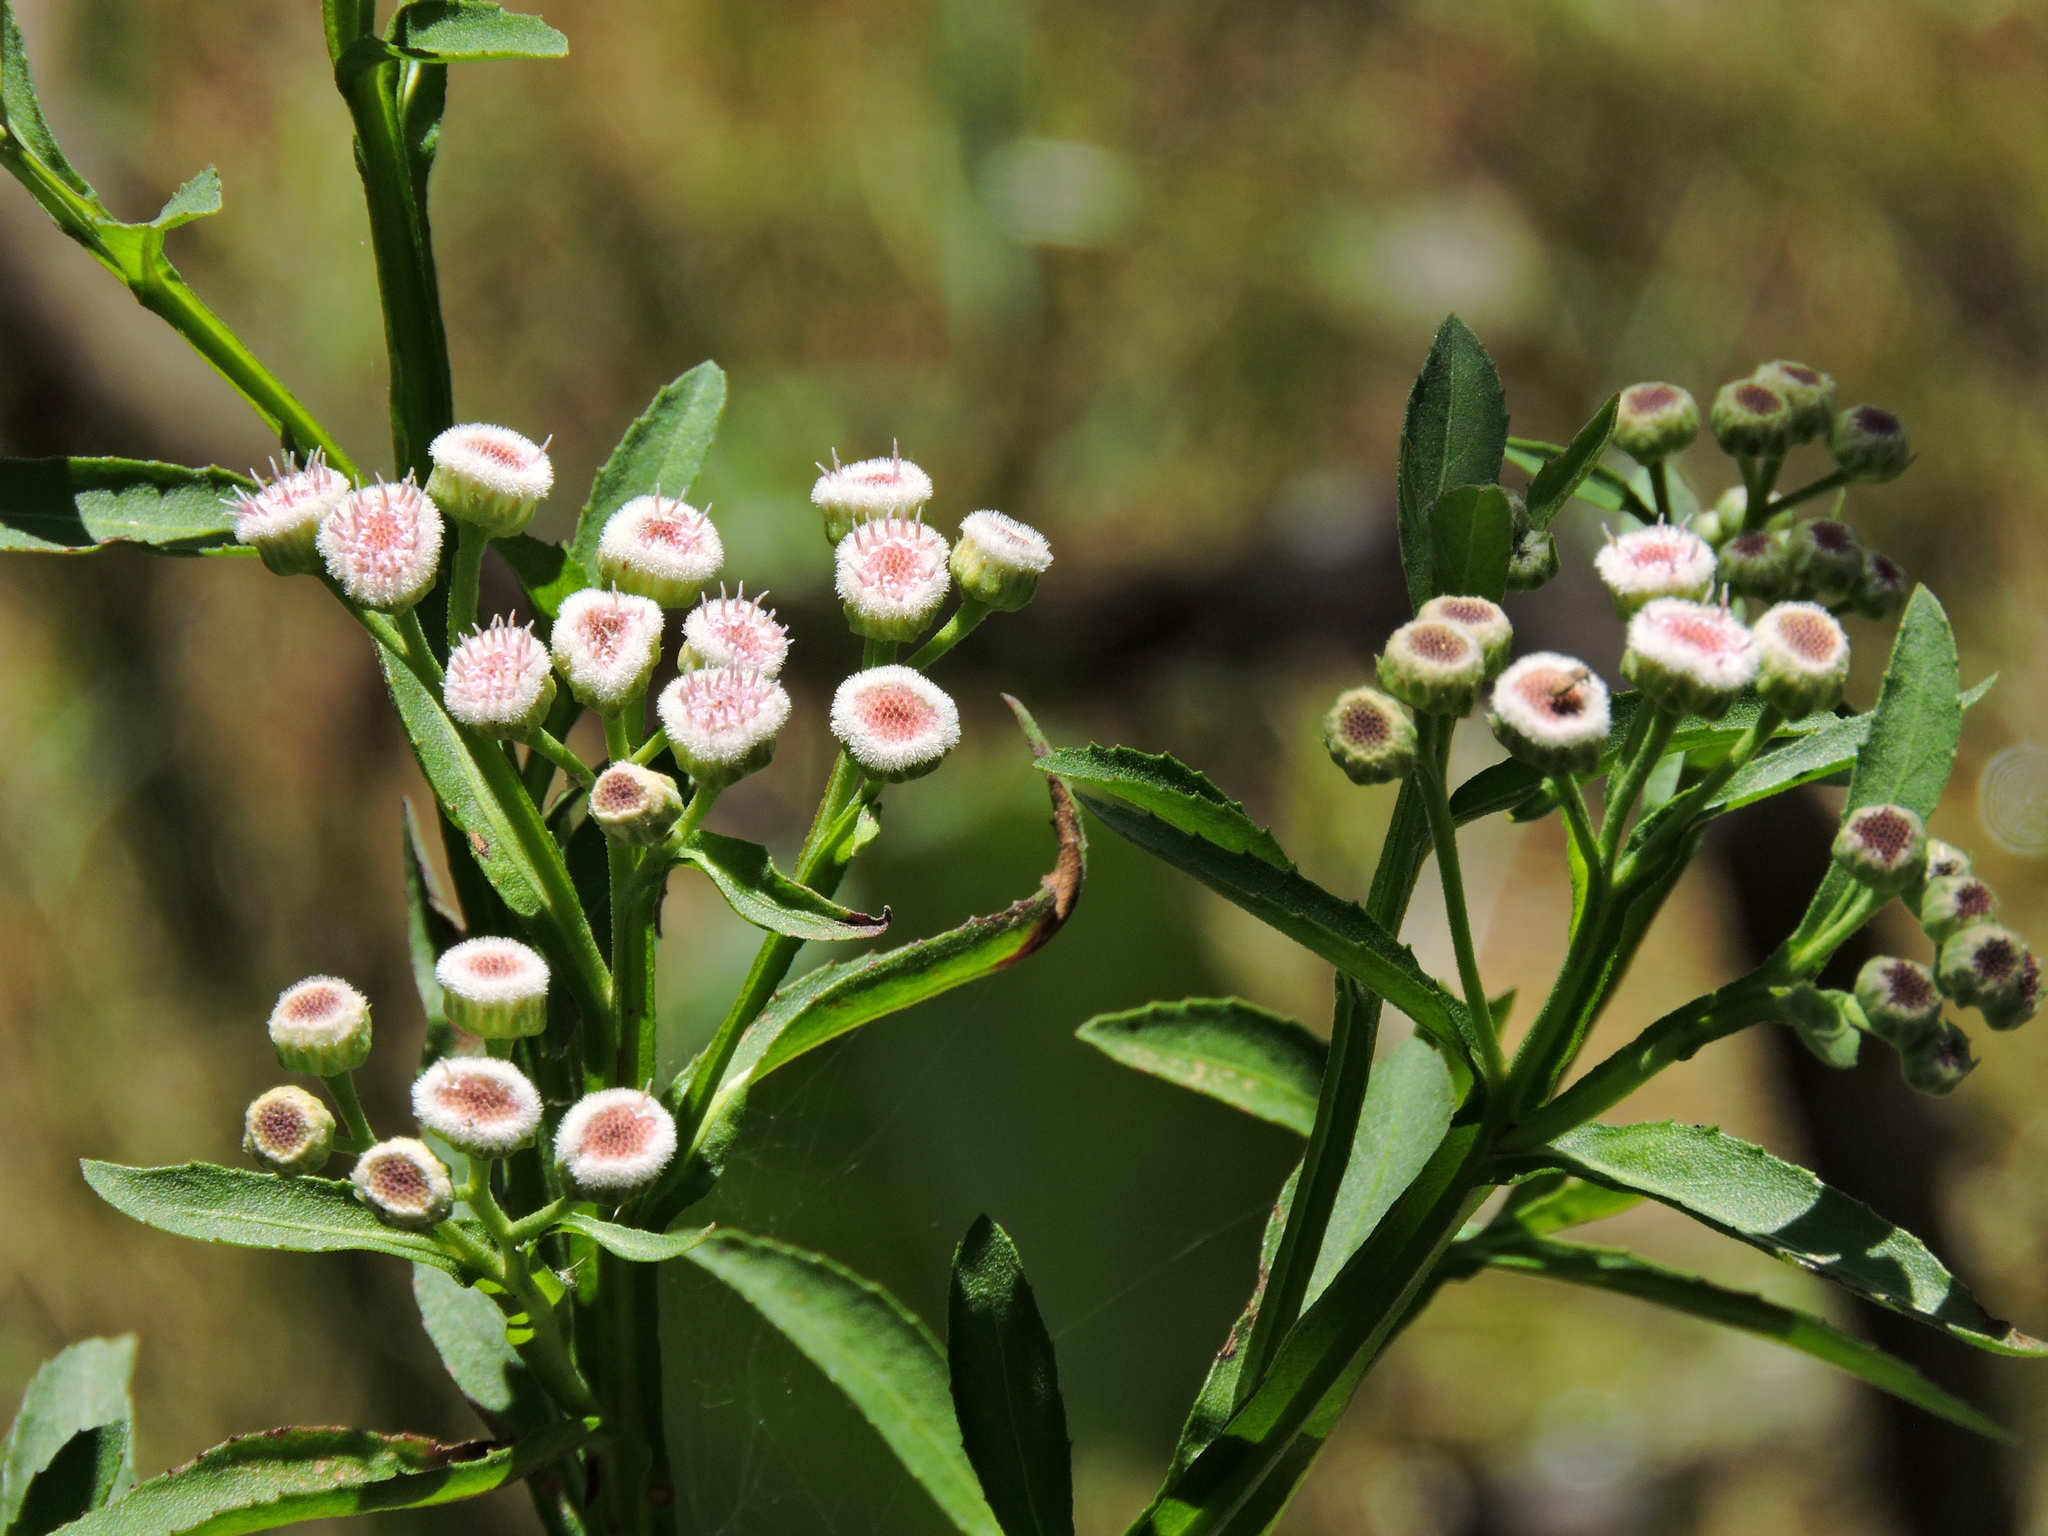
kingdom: Plantae
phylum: Tracheophyta
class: Magnoliopsida
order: Asterales
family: Asteraceae
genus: Pluchea
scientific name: Pluchea sagittalis
